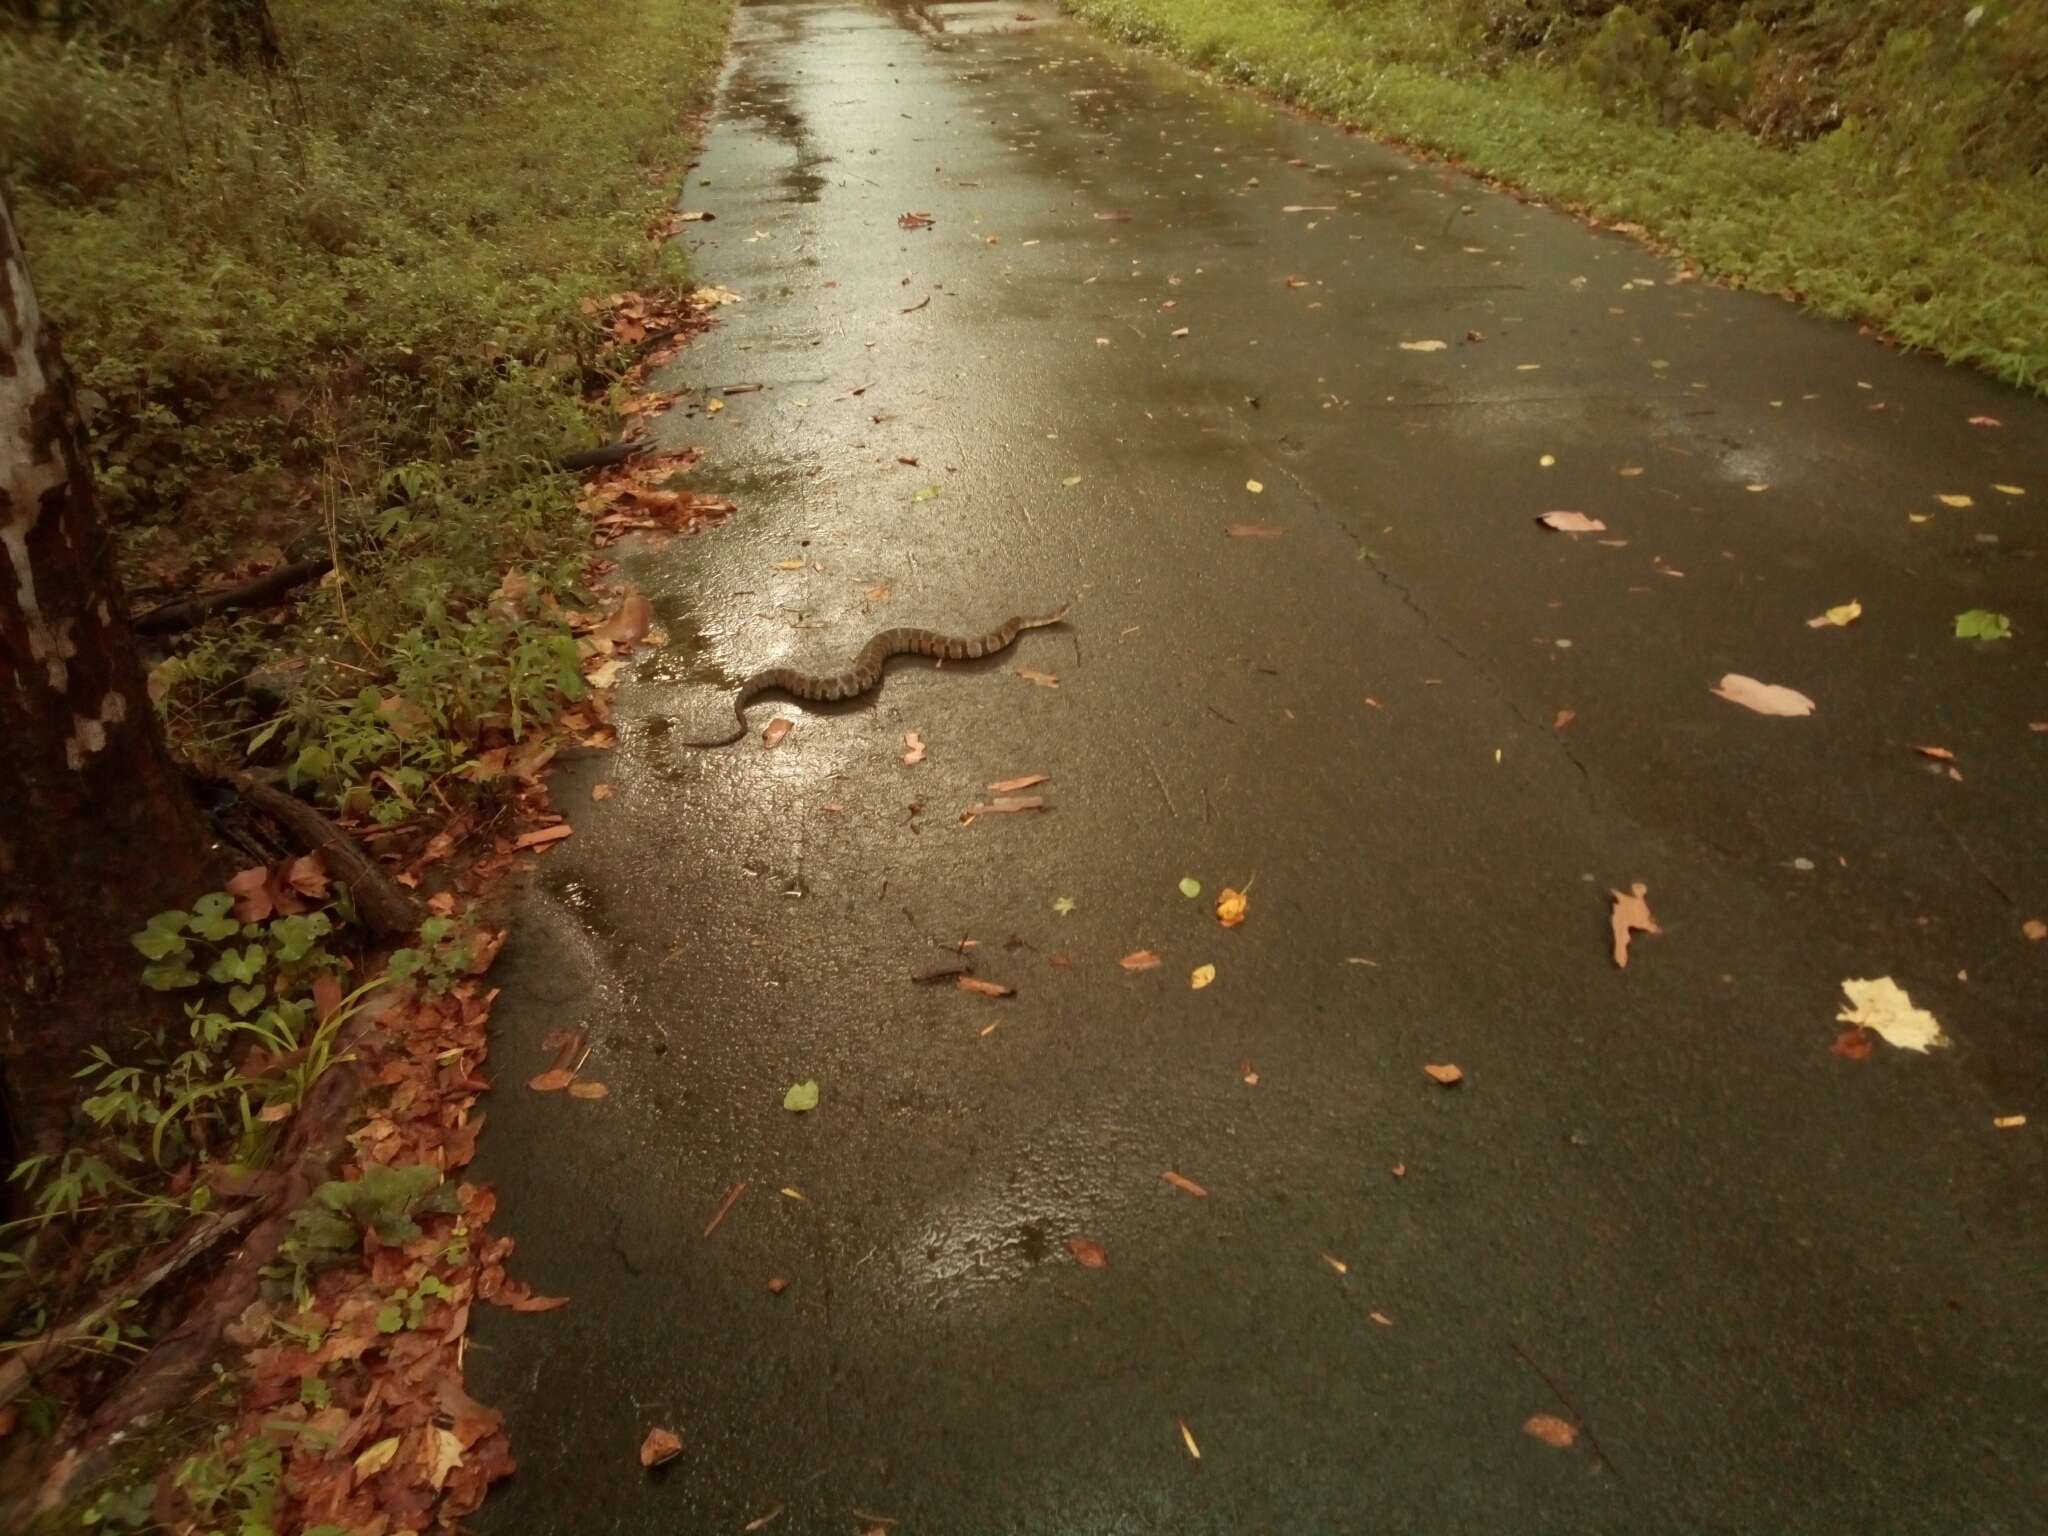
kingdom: Animalia
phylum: Chordata
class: Squamata
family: Colubridae
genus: Nerodia
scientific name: Nerodia sipedon
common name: Northern water snake
